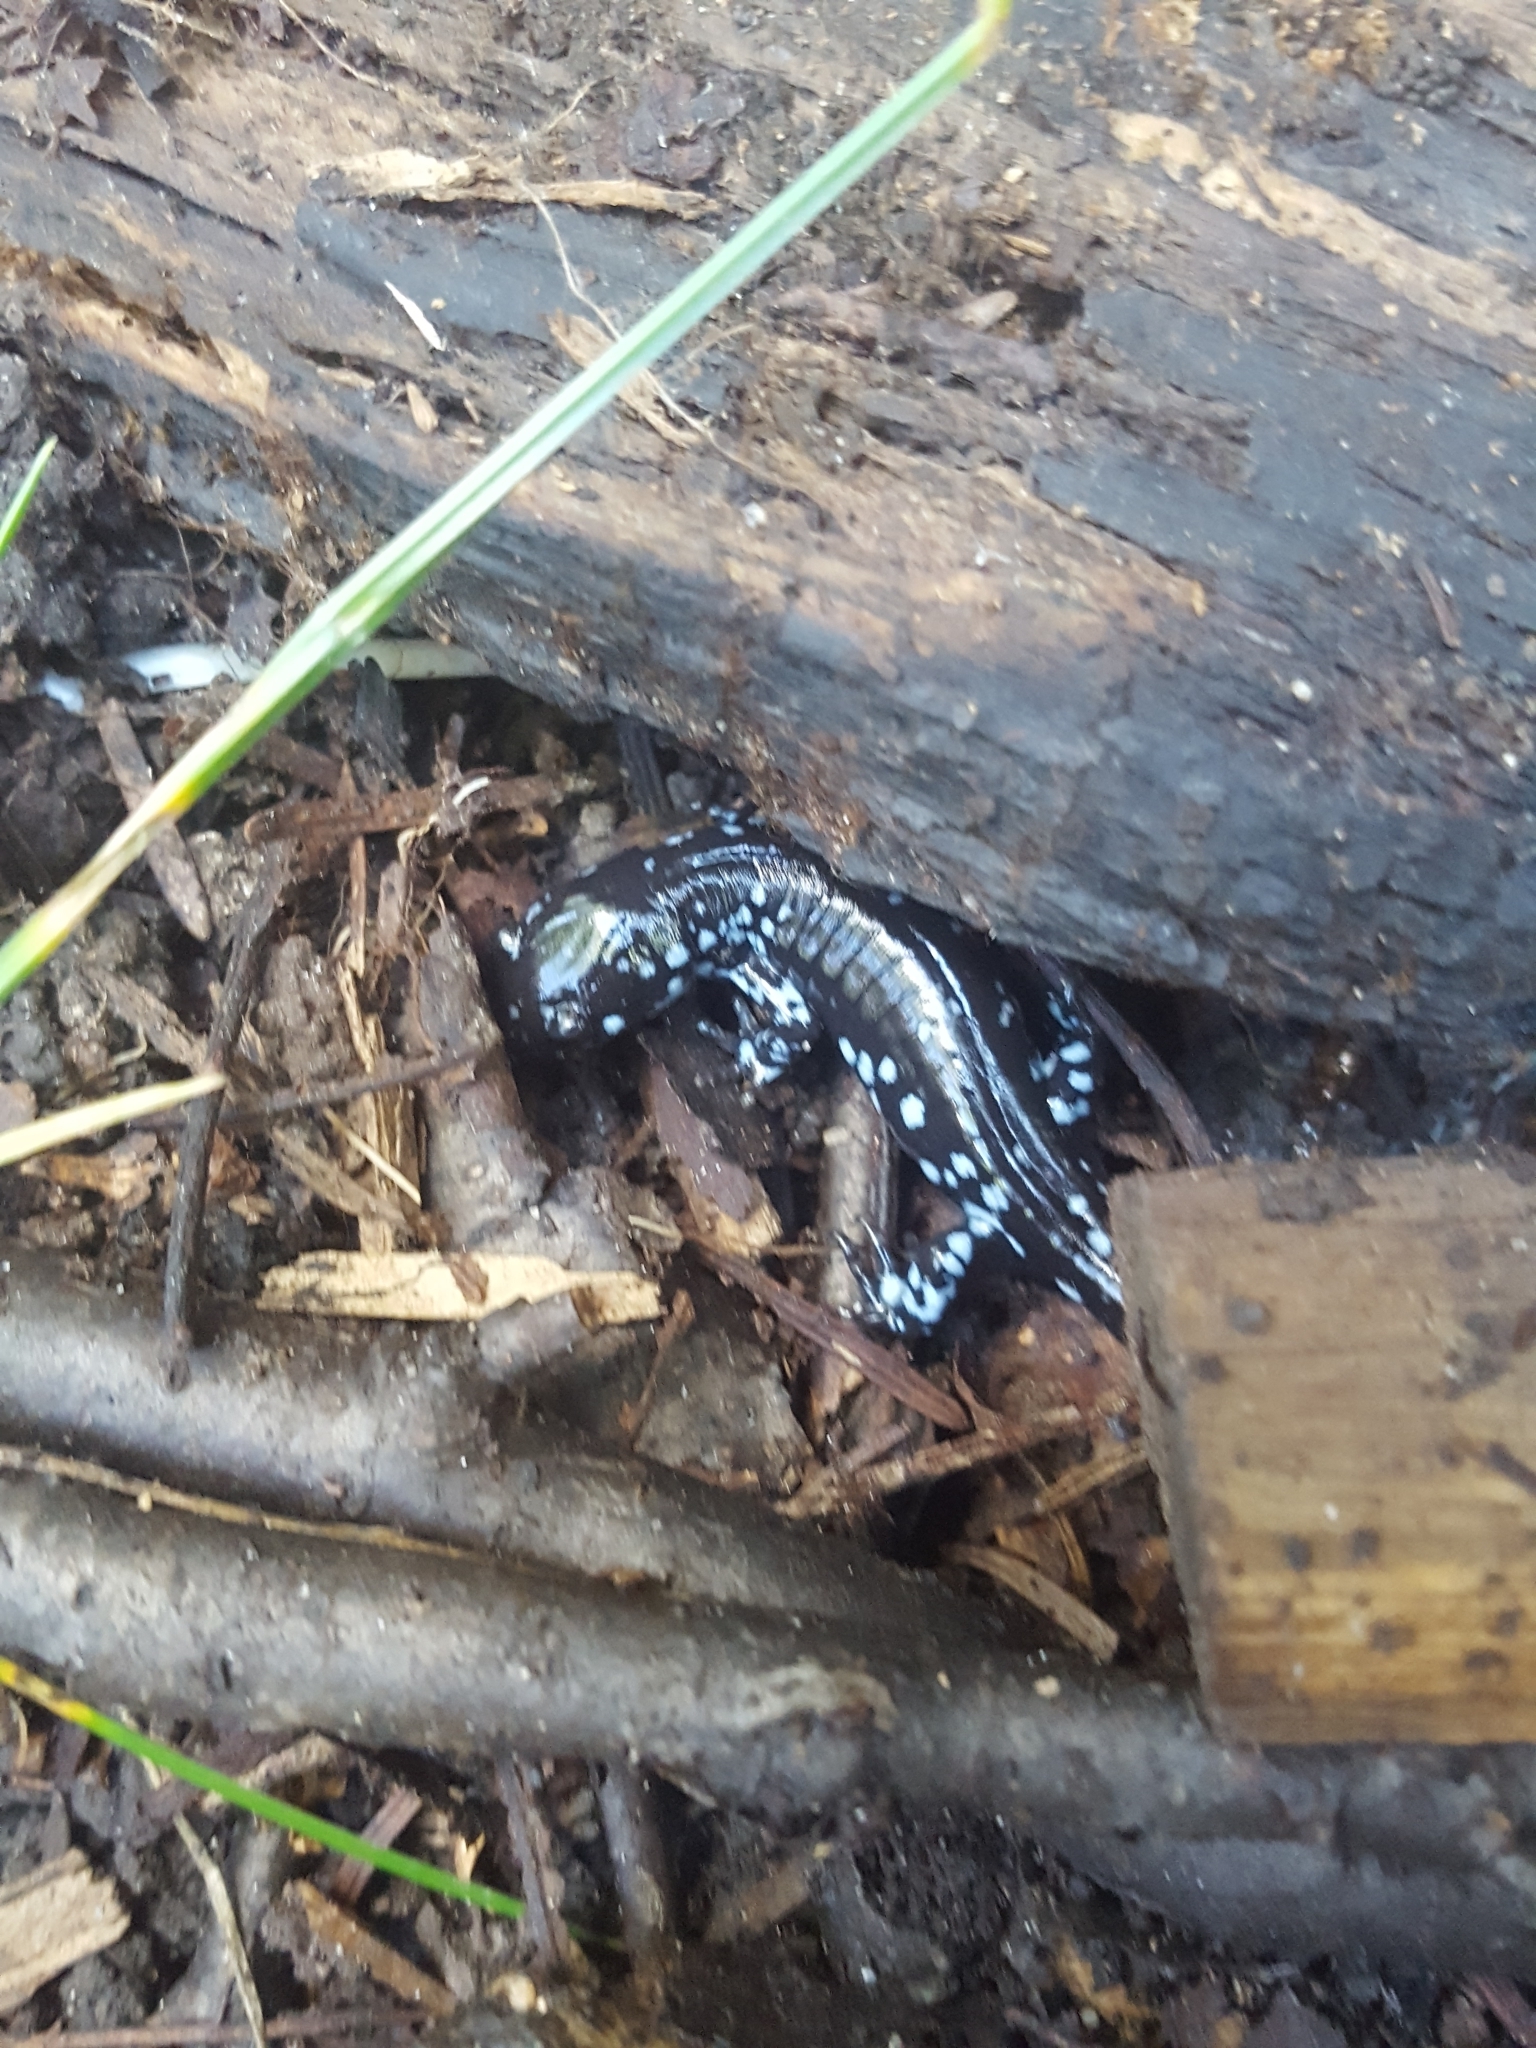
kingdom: Animalia
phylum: Chordata
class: Amphibia
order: Caudata
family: Ambystomatidae
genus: Ambystoma
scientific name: Ambystoma laterale
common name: Blue-spotted salamander
